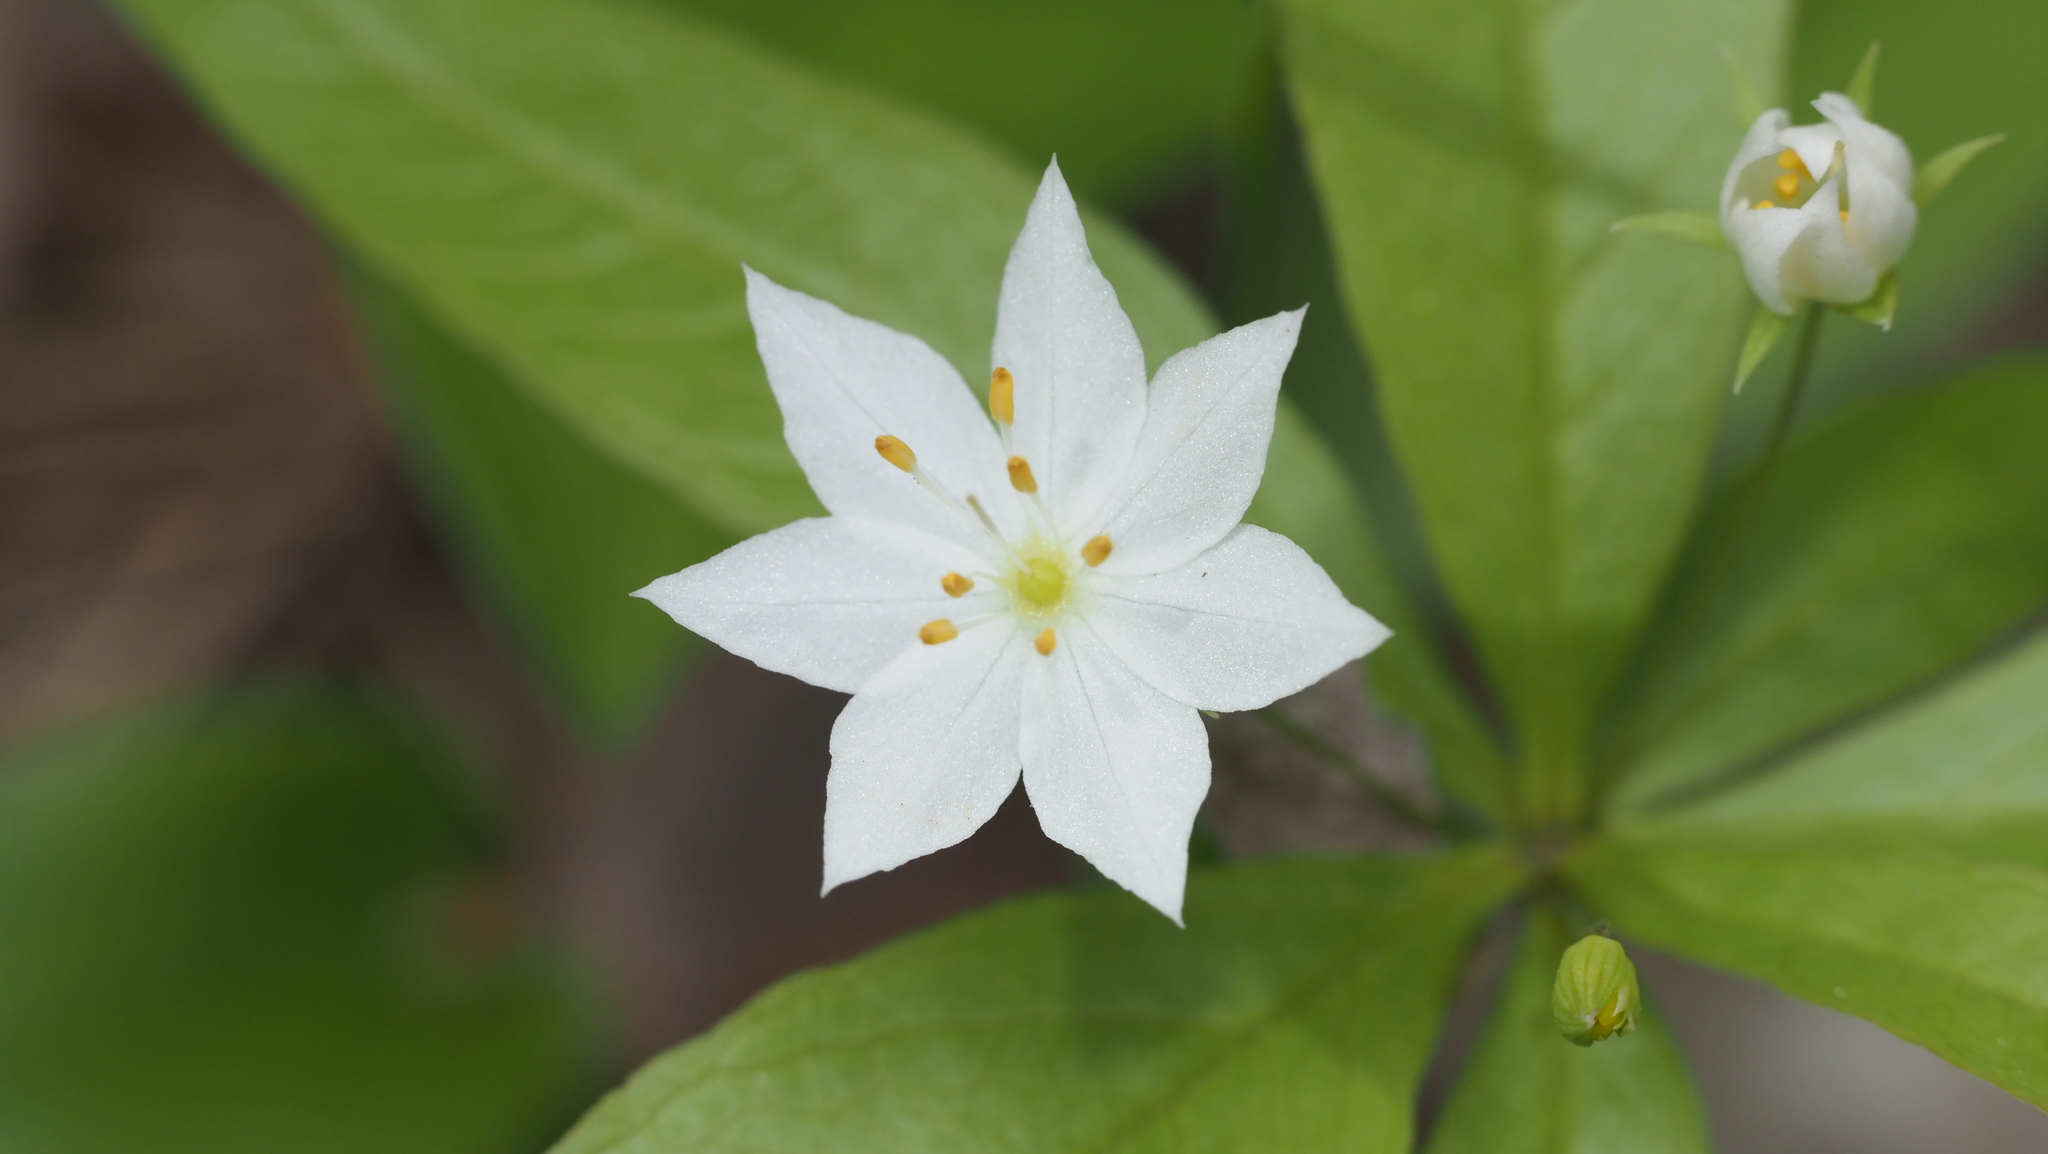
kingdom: Plantae
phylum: Tracheophyta
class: Magnoliopsida
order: Ericales
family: Primulaceae
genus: Lysimachia
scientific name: Lysimachia borealis
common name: American starflower
